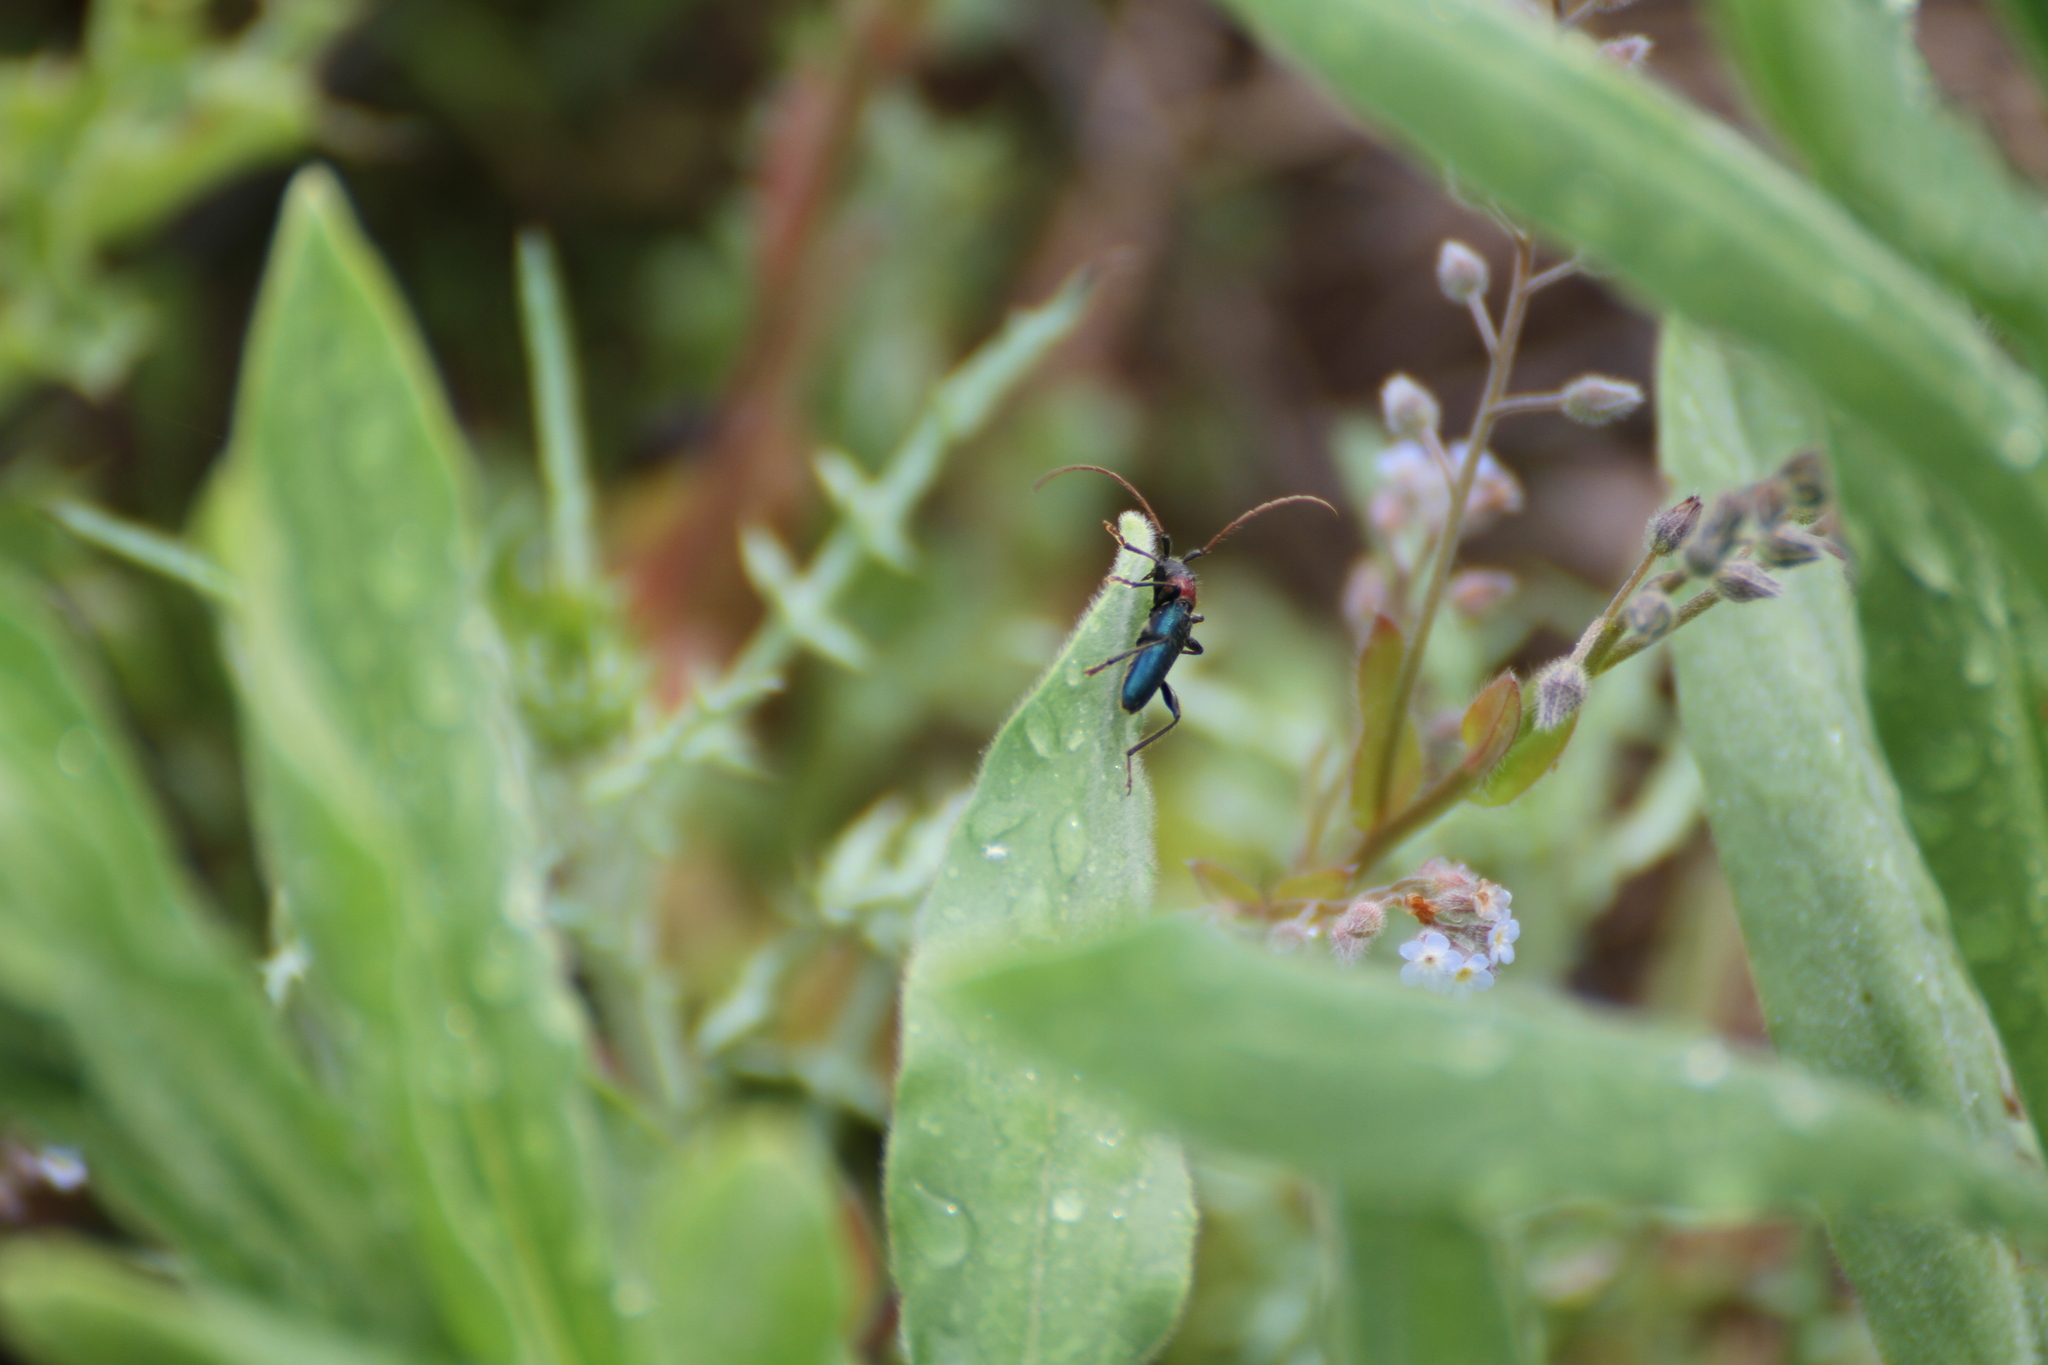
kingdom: Animalia
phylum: Arthropoda
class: Insecta
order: Coleoptera
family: Cerambycidae
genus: Certallum
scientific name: Certallum ebulinum
